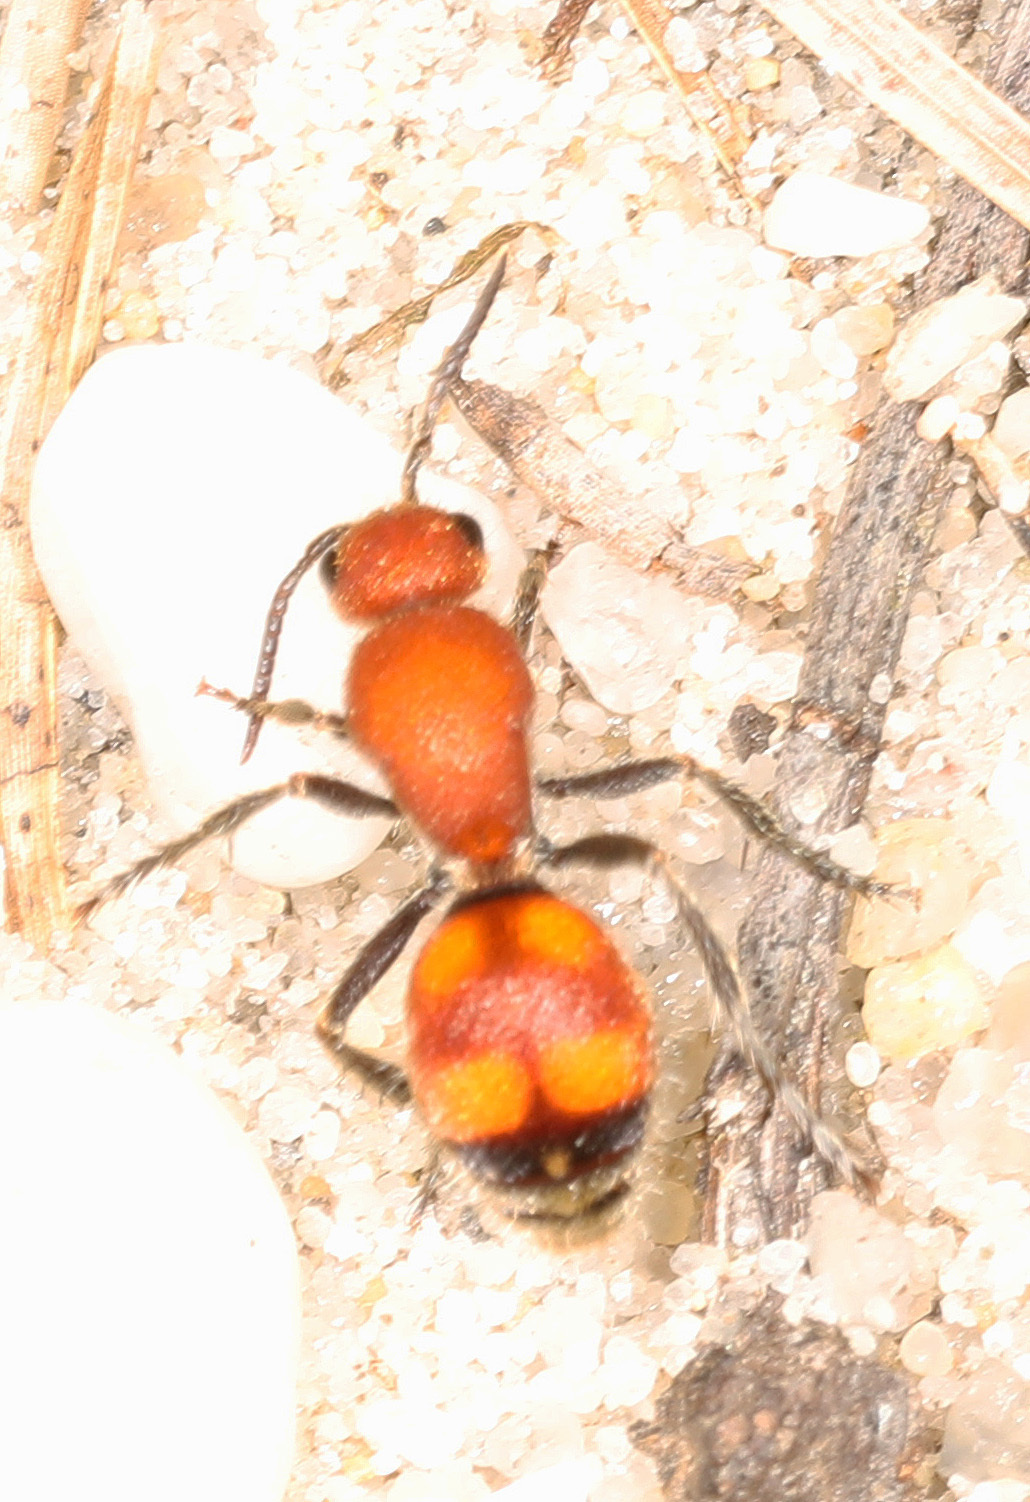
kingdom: Animalia
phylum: Arthropoda
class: Insecta
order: Hymenoptera
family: Mutillidae
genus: Dasymutilla
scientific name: Dasymutilla
